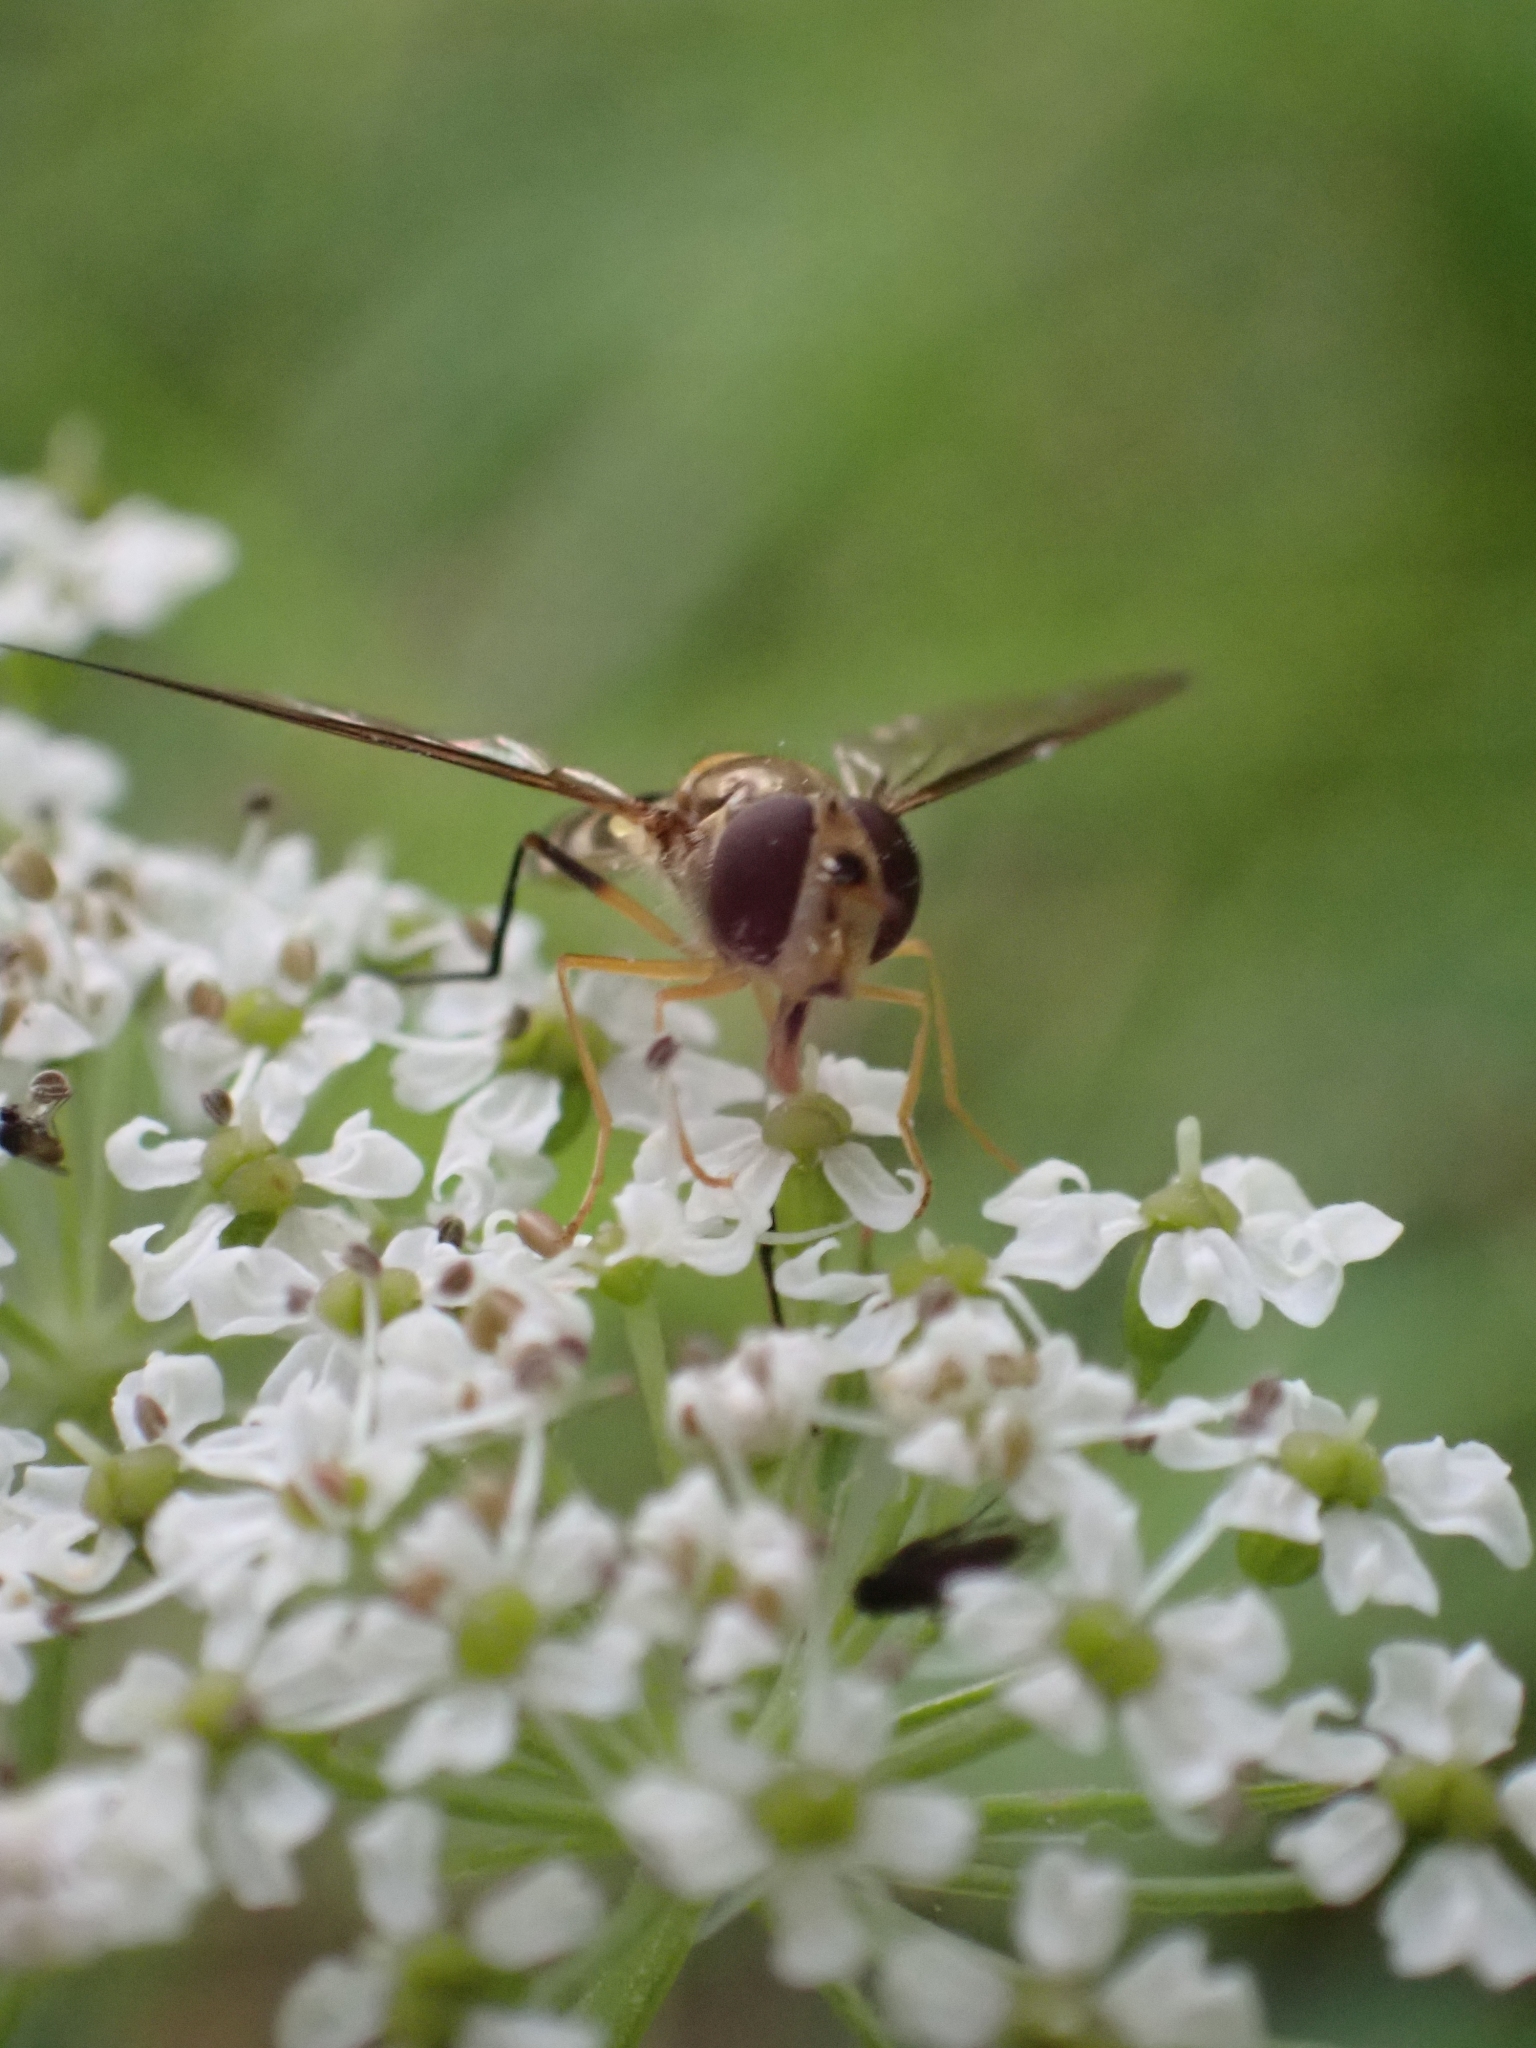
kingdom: Animalia
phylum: Arthropoda
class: Insecta
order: Diptera
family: Syrphidae
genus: Meliscaeva
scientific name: Meliscaeva cinctella
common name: American thintail fly
